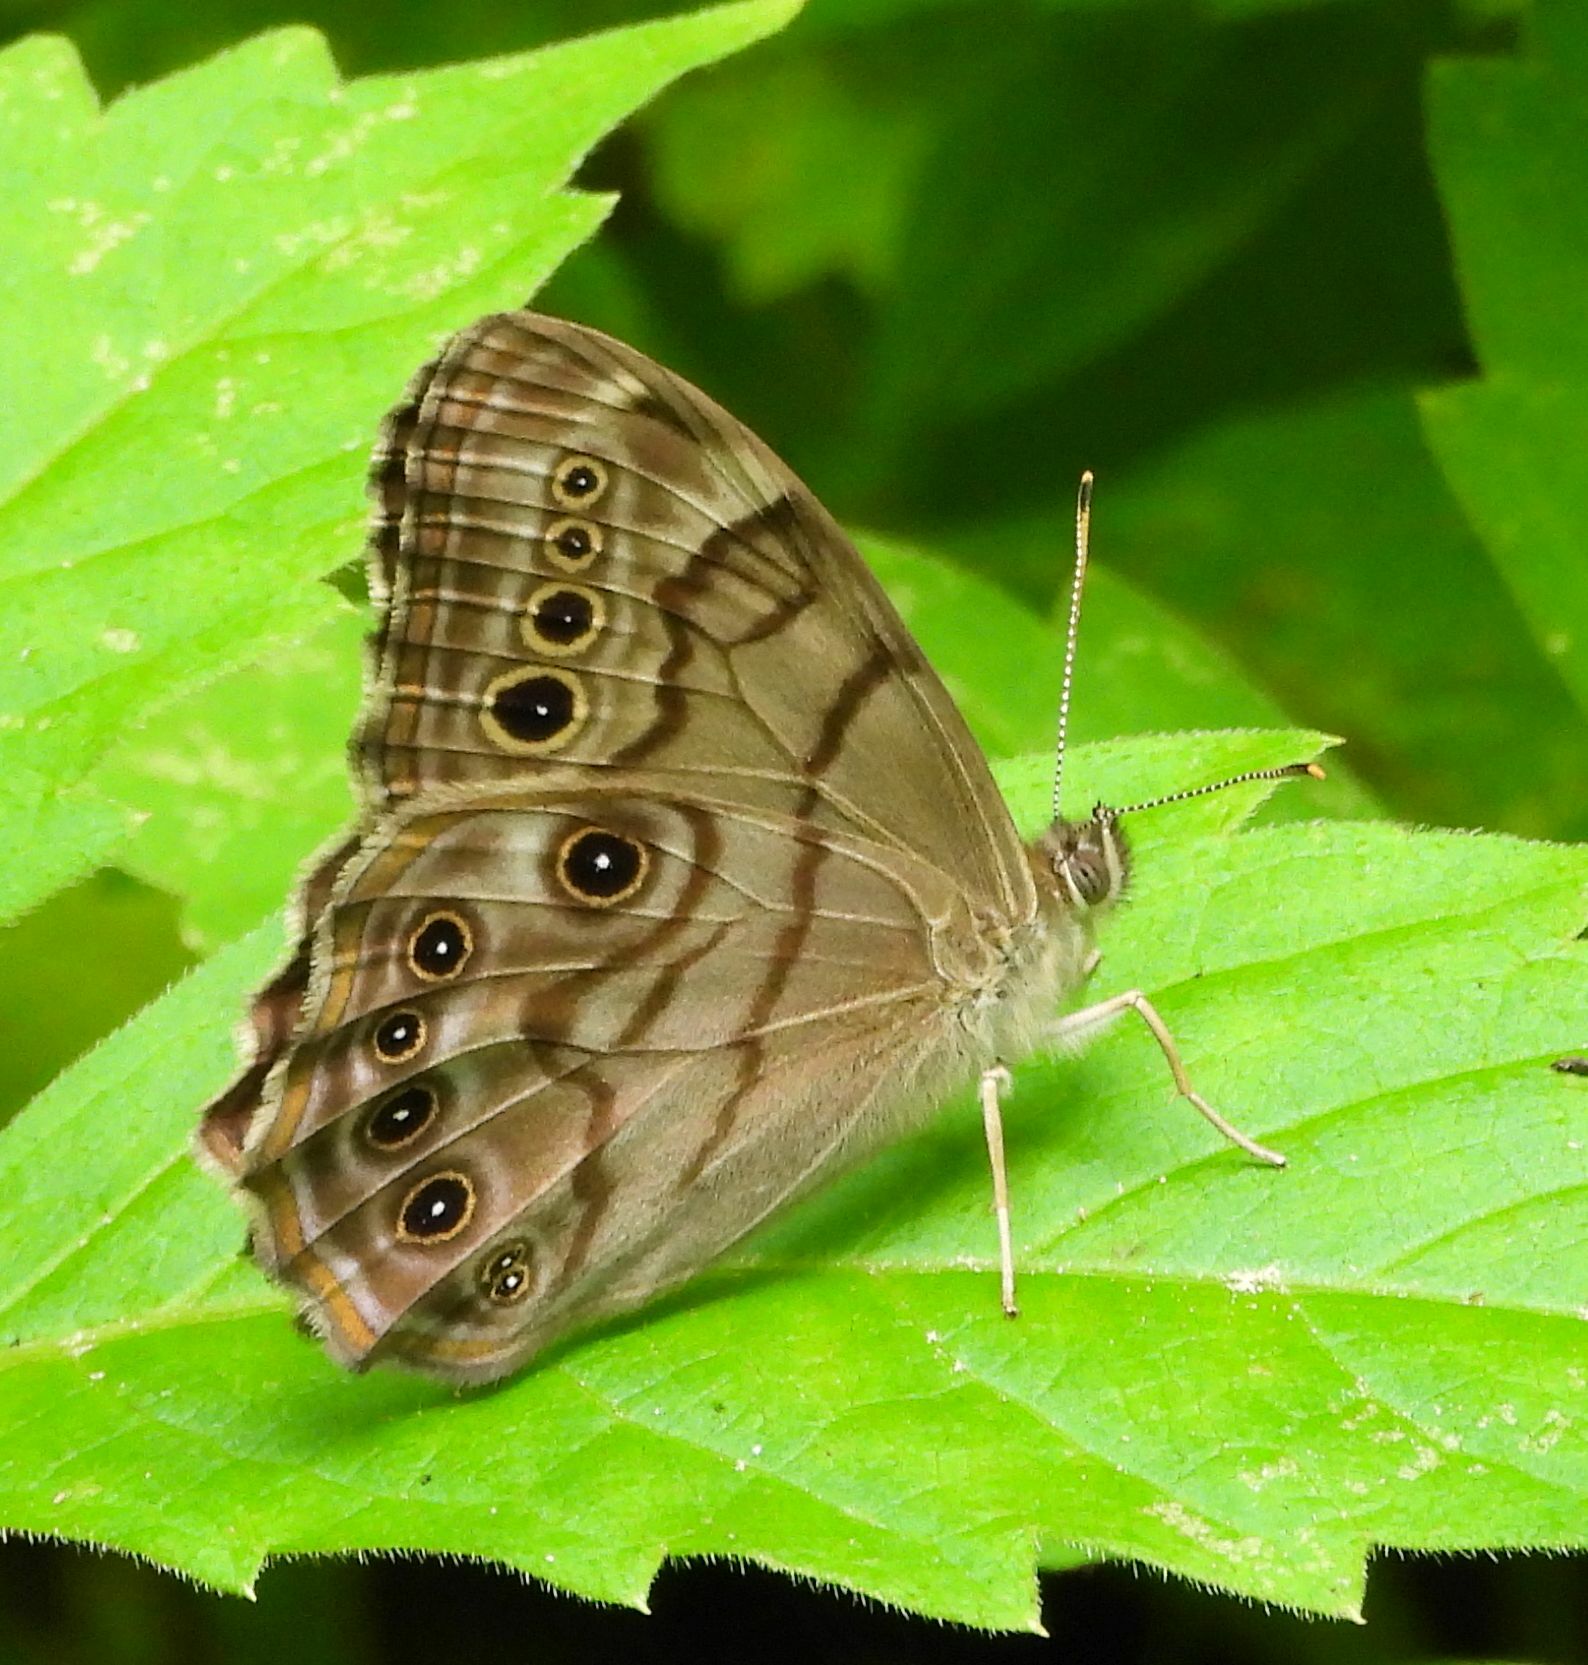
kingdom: Animalia
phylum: Arthropoda
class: Insecta
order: Lepidoptera
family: Nymphalidae
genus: Lethe
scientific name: Lethe anthedon
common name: Northern pearly-eye
